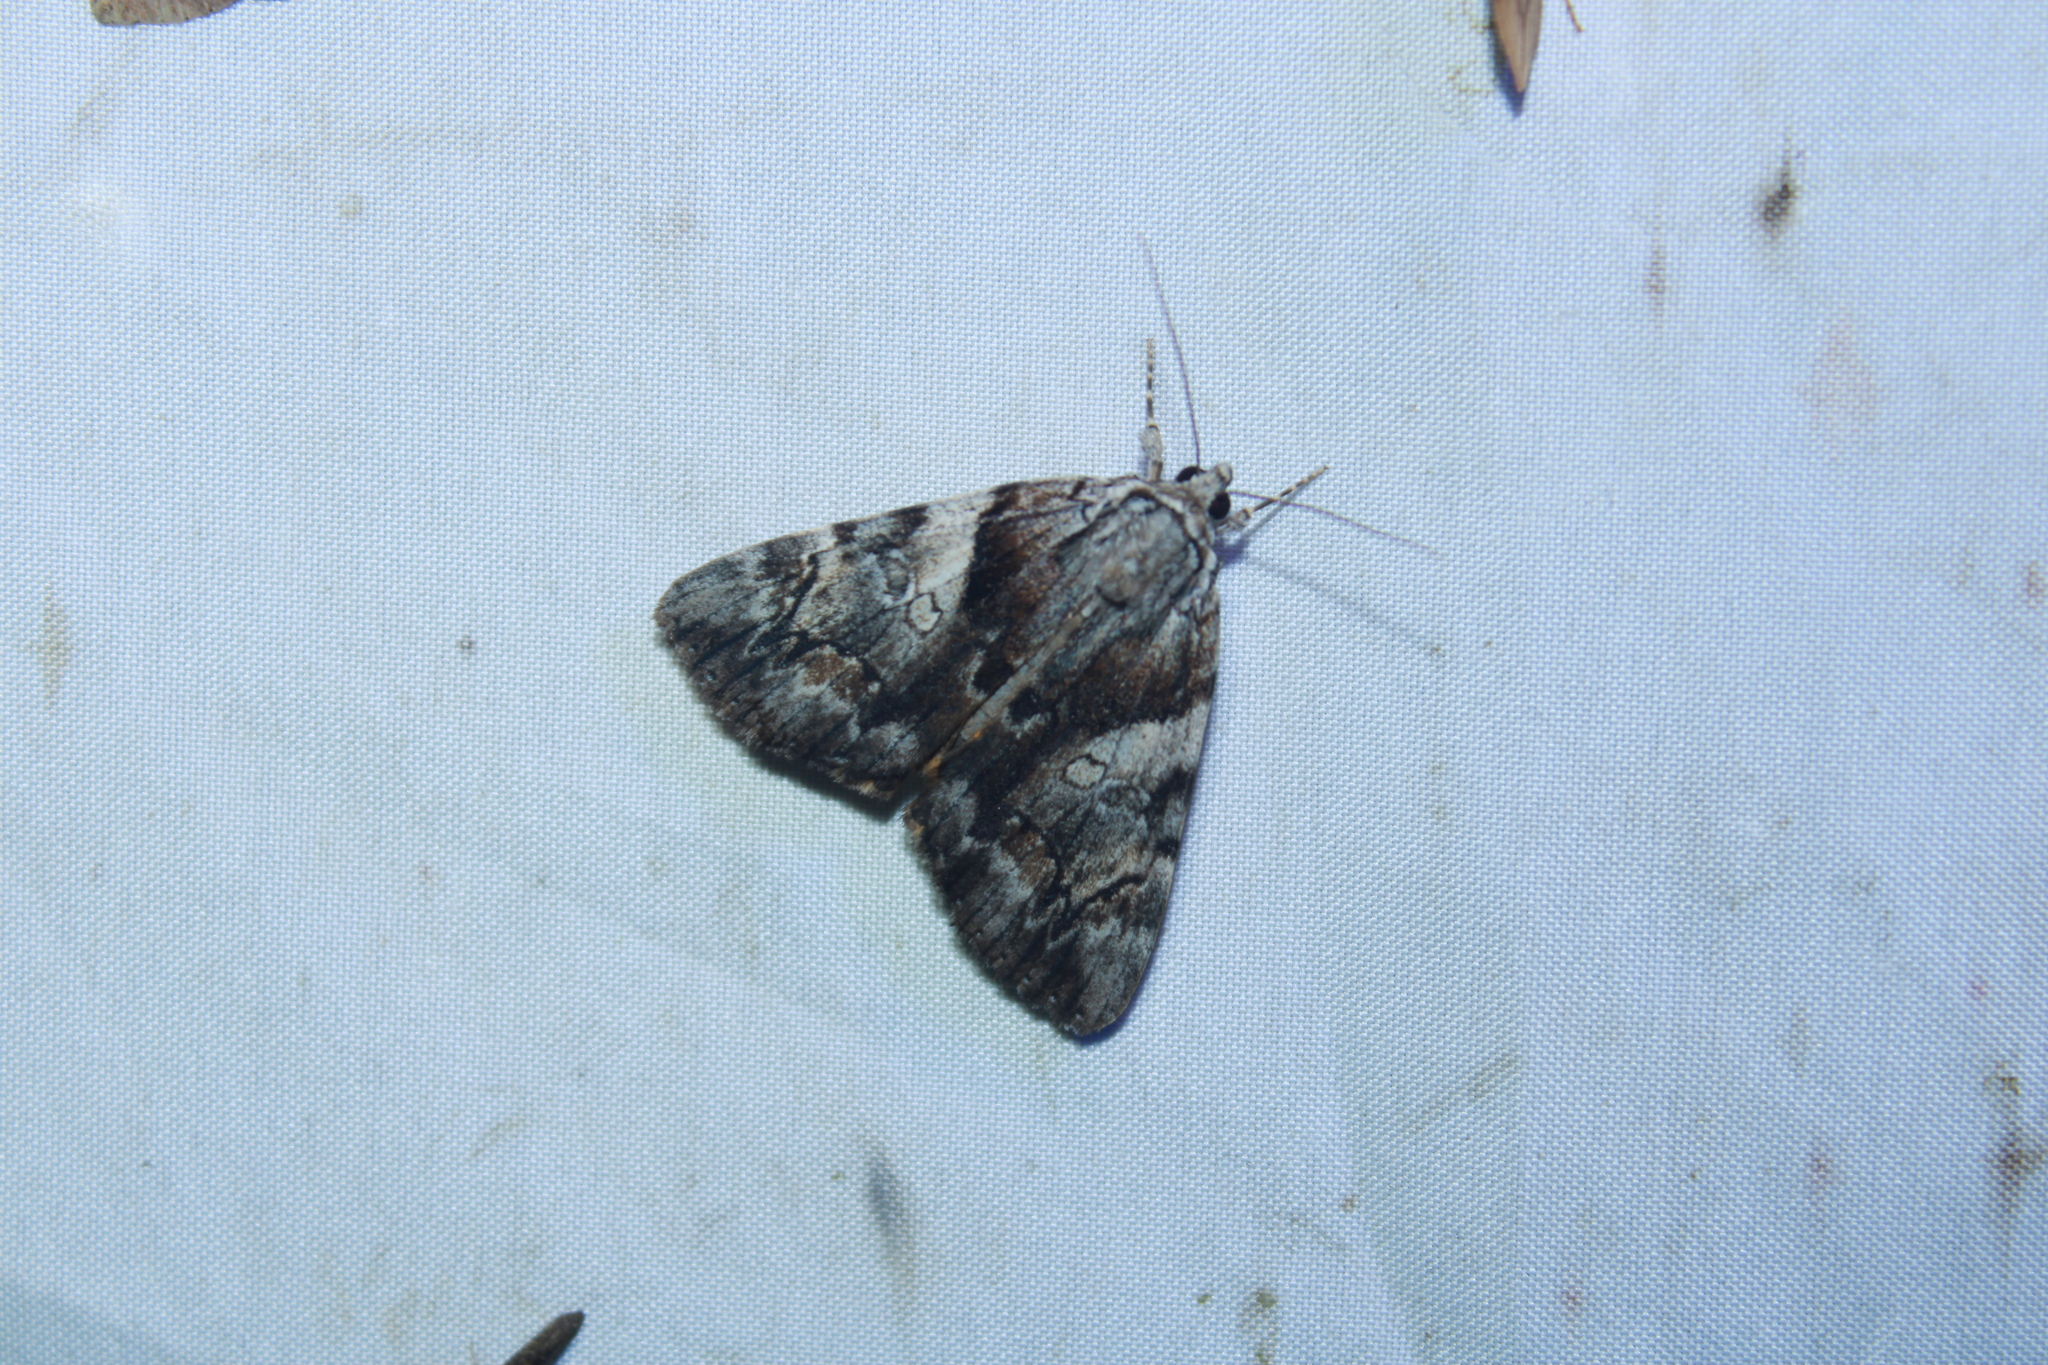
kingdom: Animalia
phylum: Arthropoda
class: Insecta
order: Lepidoptera
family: Erebidae
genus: Catocala
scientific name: Catocala blandula
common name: Charming underwing
